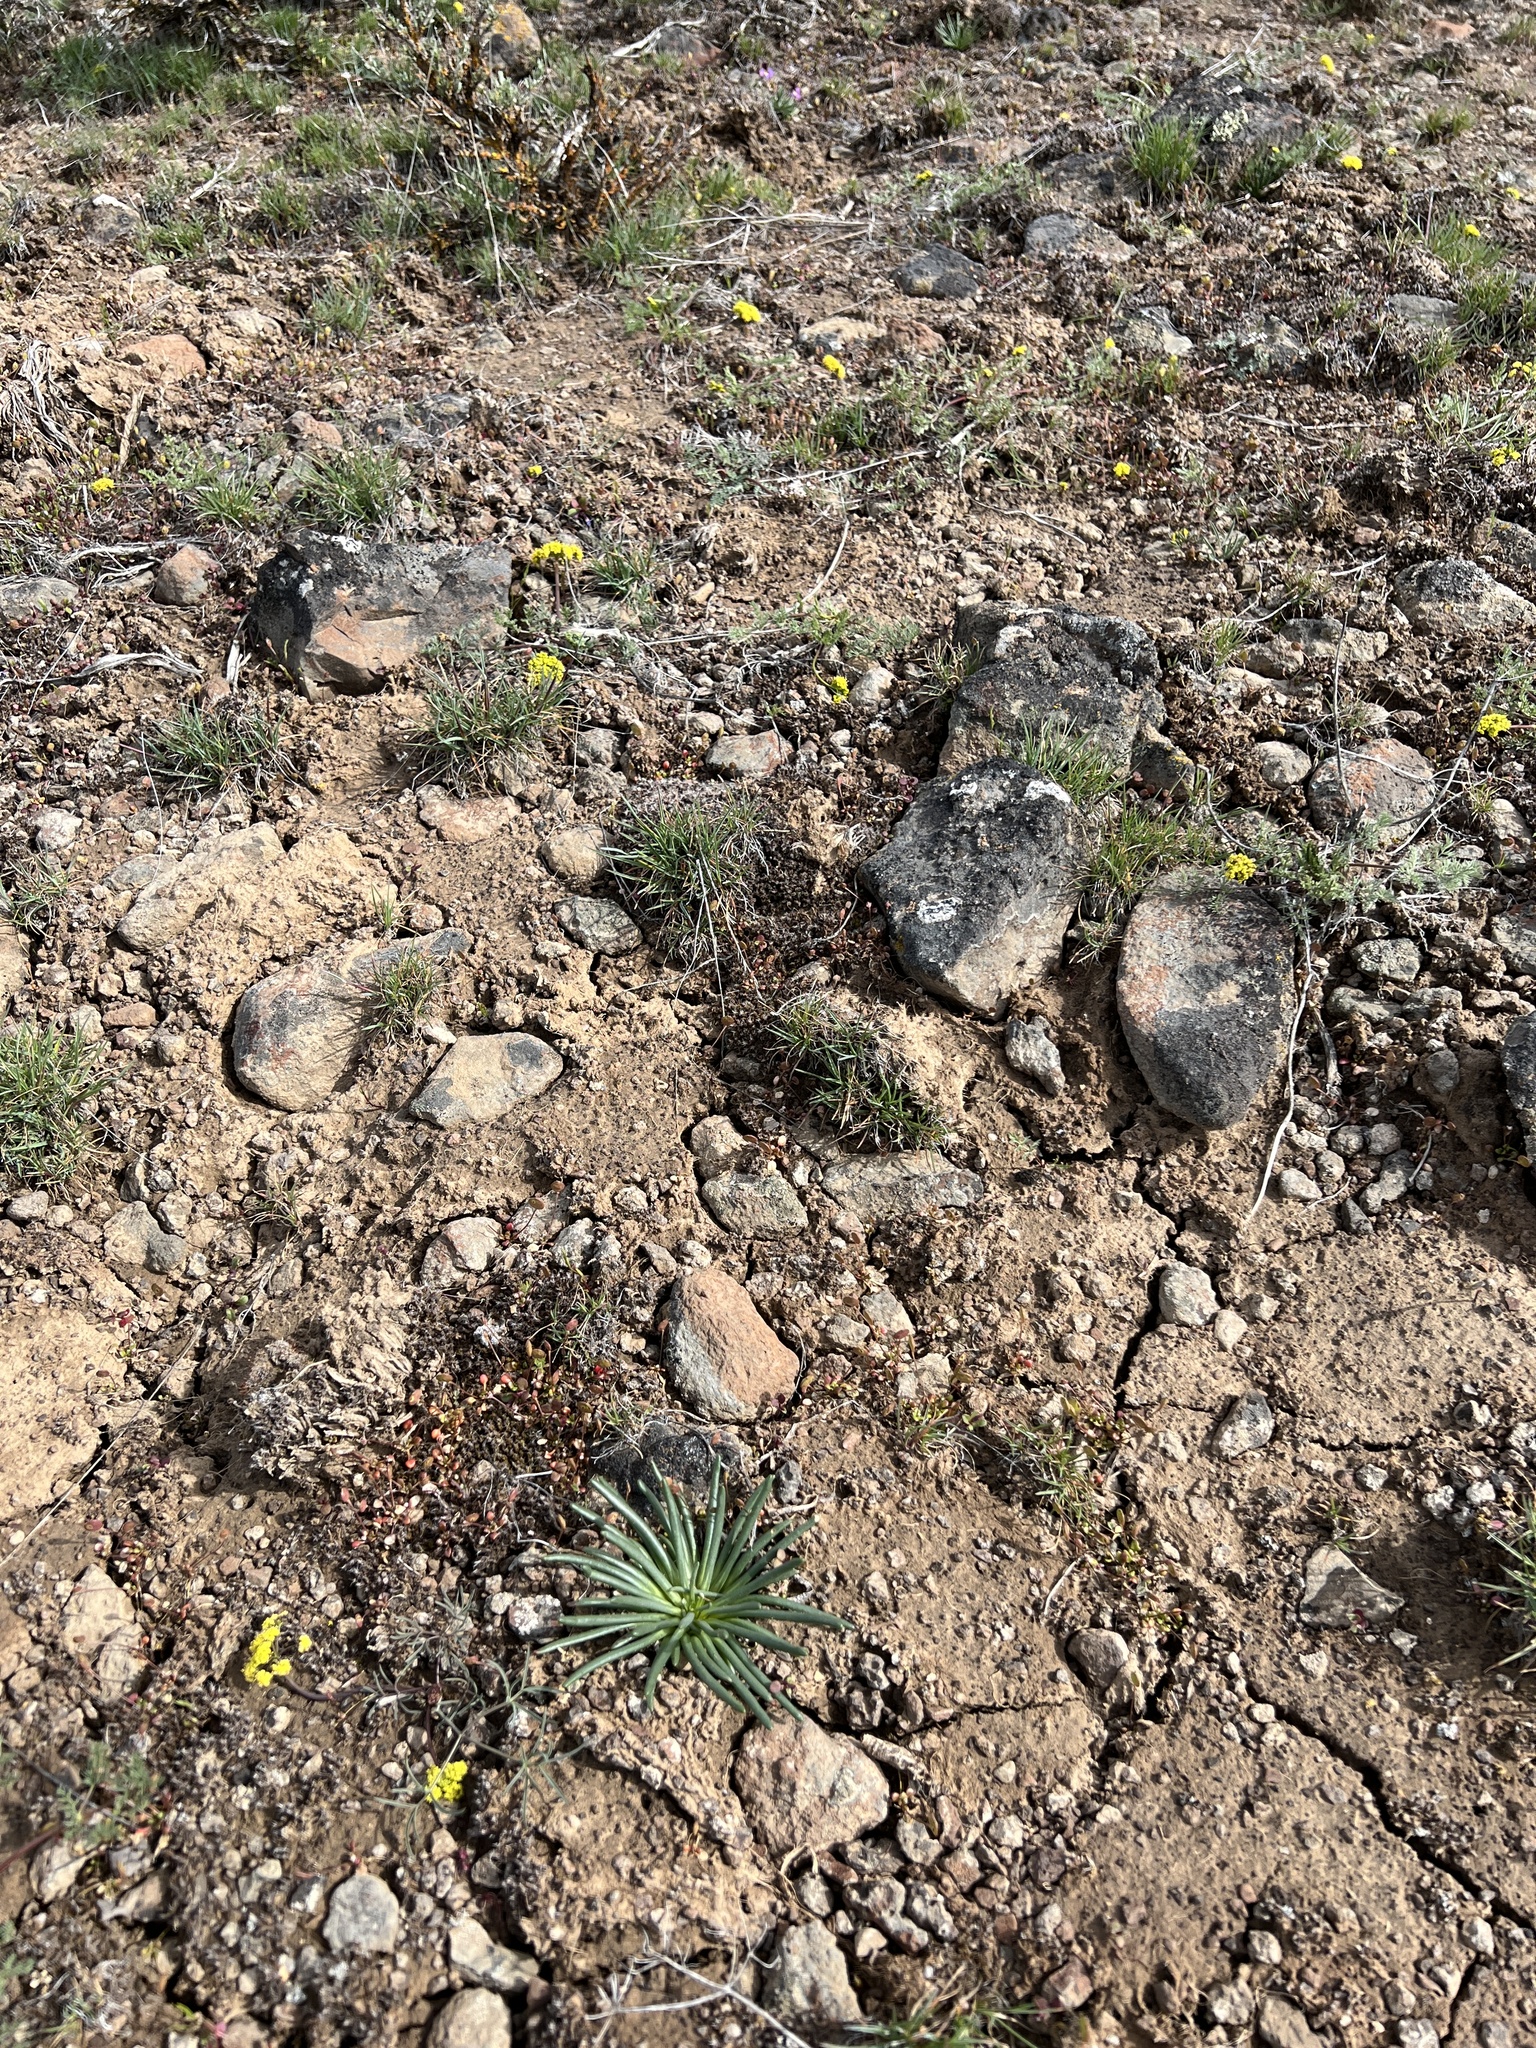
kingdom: Plantae
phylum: Tracheophyta
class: Magnoliopsida
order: Caryophyllales
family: Montiaceae
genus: Lewisia
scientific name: Lewisia rediviva
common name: Bitter-root
